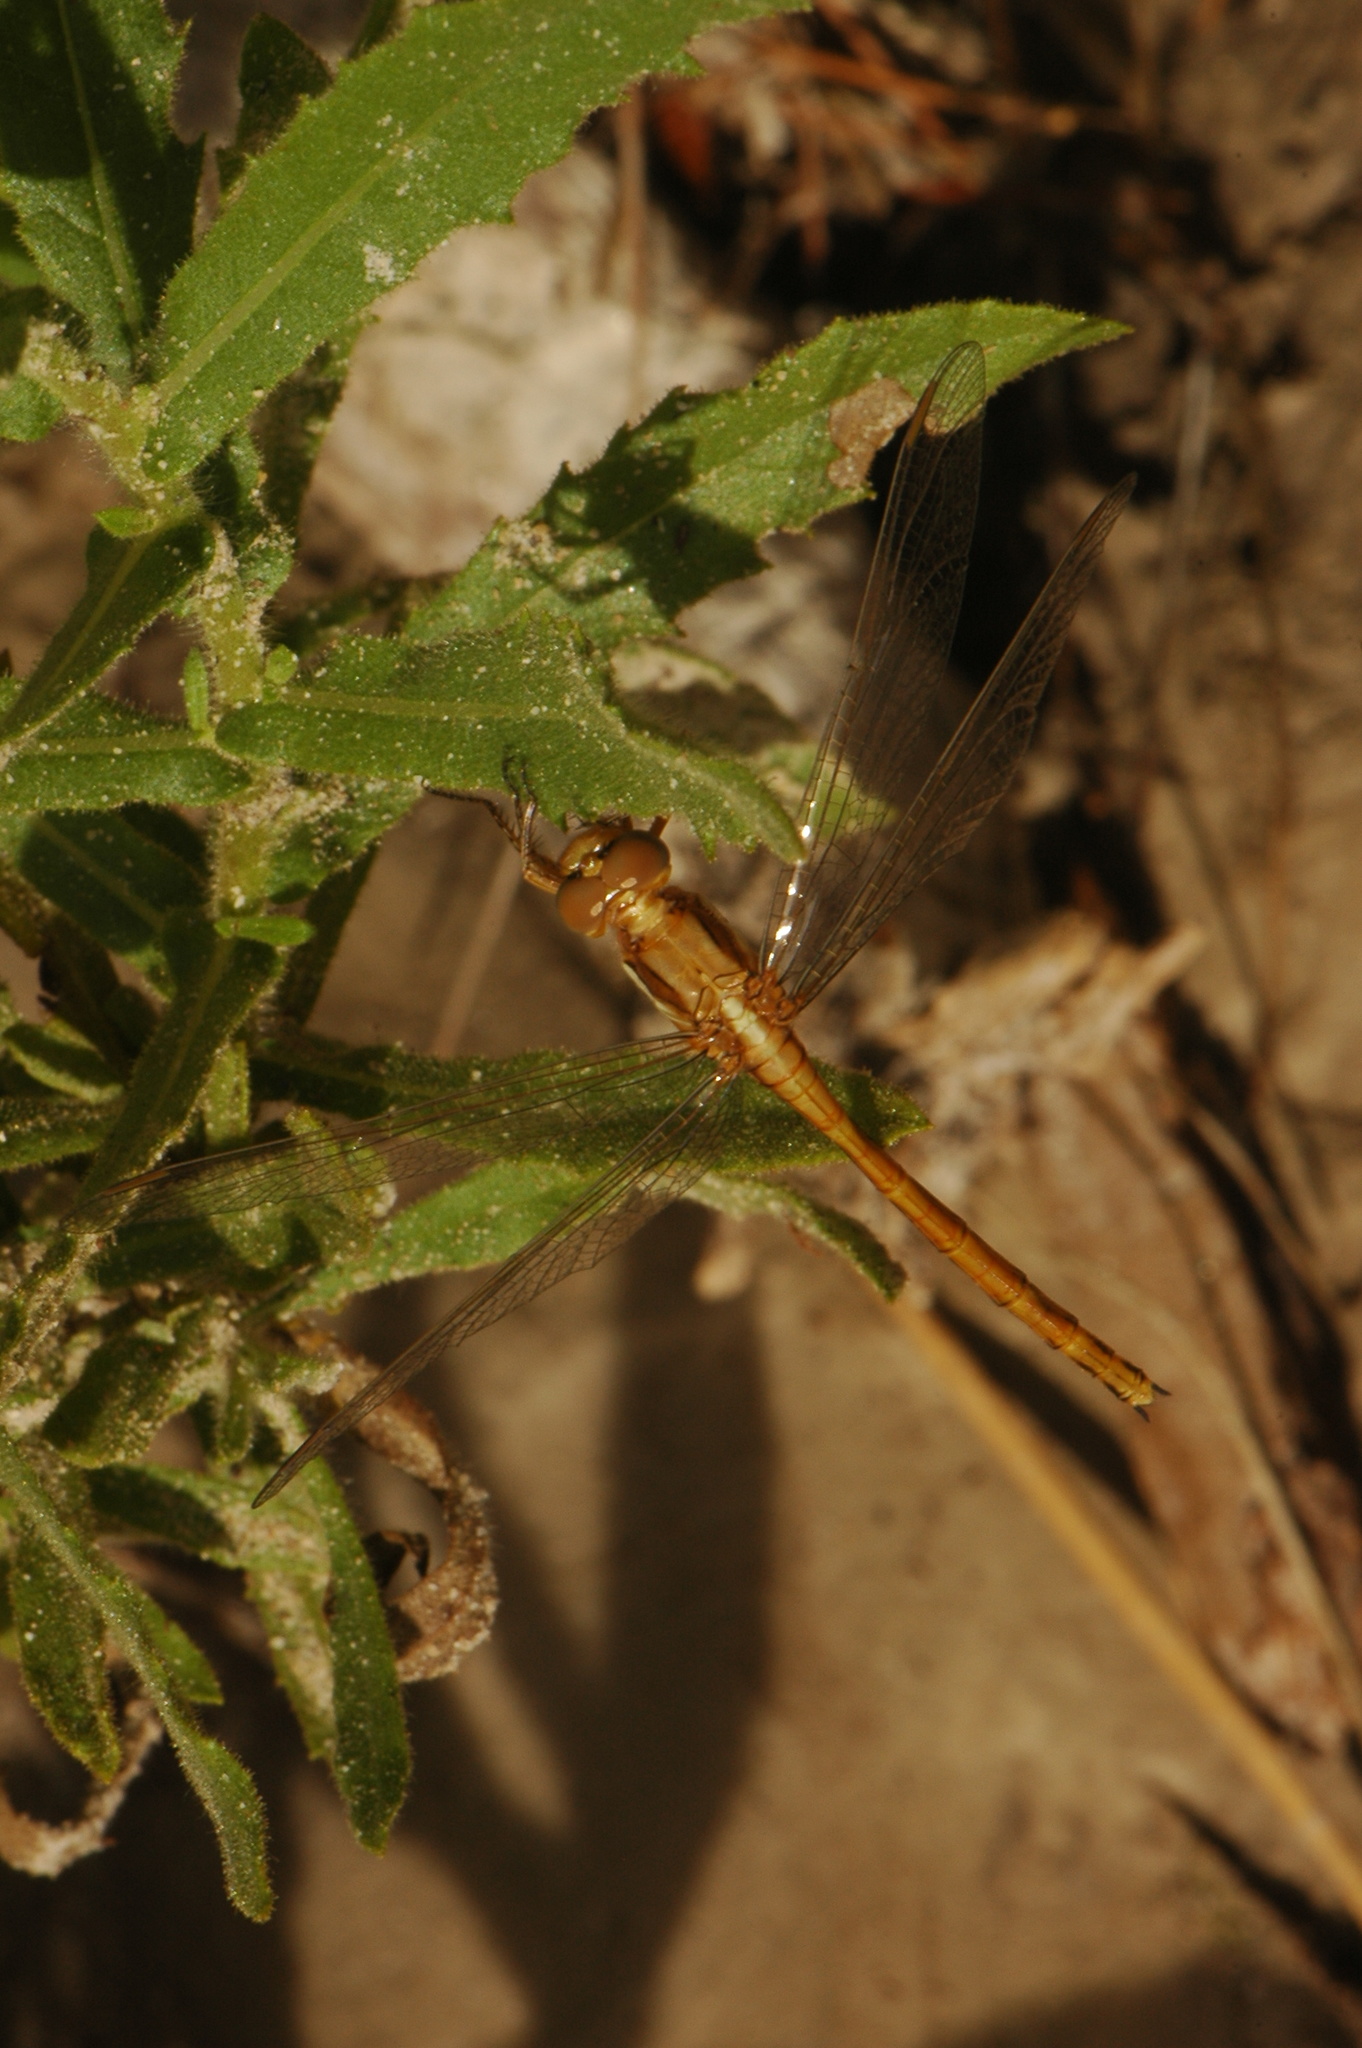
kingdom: Animalia
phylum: Arthropoda
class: Insecta
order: Odonata
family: Libellulidae
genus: Orthetrum
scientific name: Orthetrum chrysostigma
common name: Epaulet skimmer
